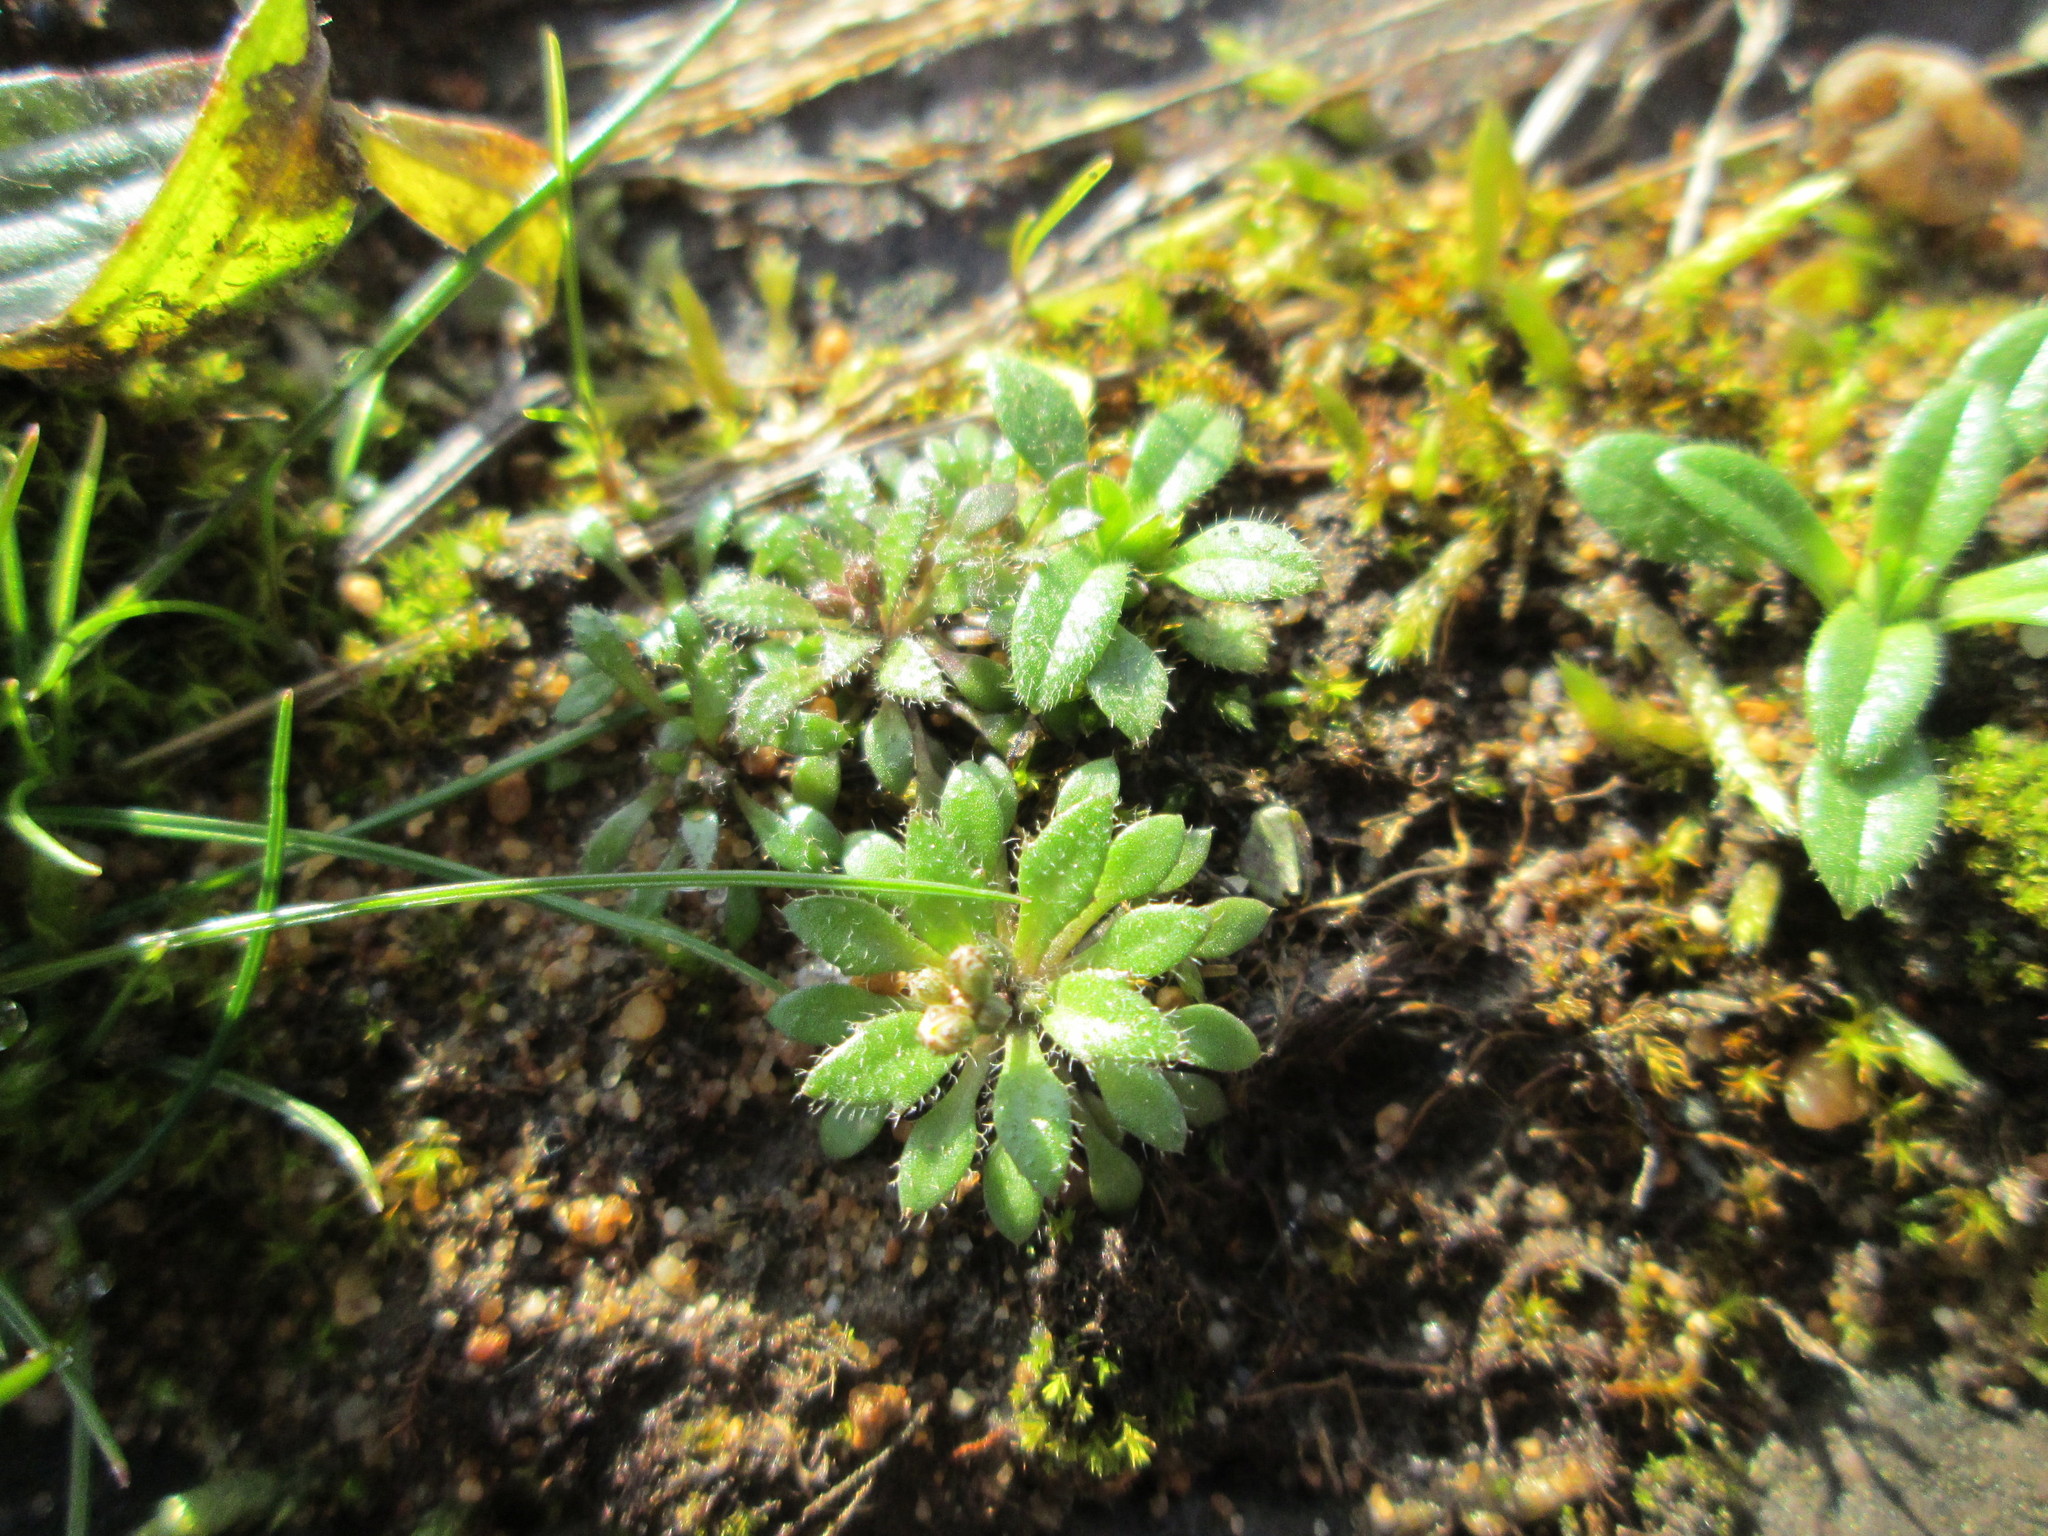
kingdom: Plantae
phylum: Tracheophyta
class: Magnoliopsida
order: Brassicales
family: Brassicaceae
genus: Draba
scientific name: Draba verna
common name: Spring draba
